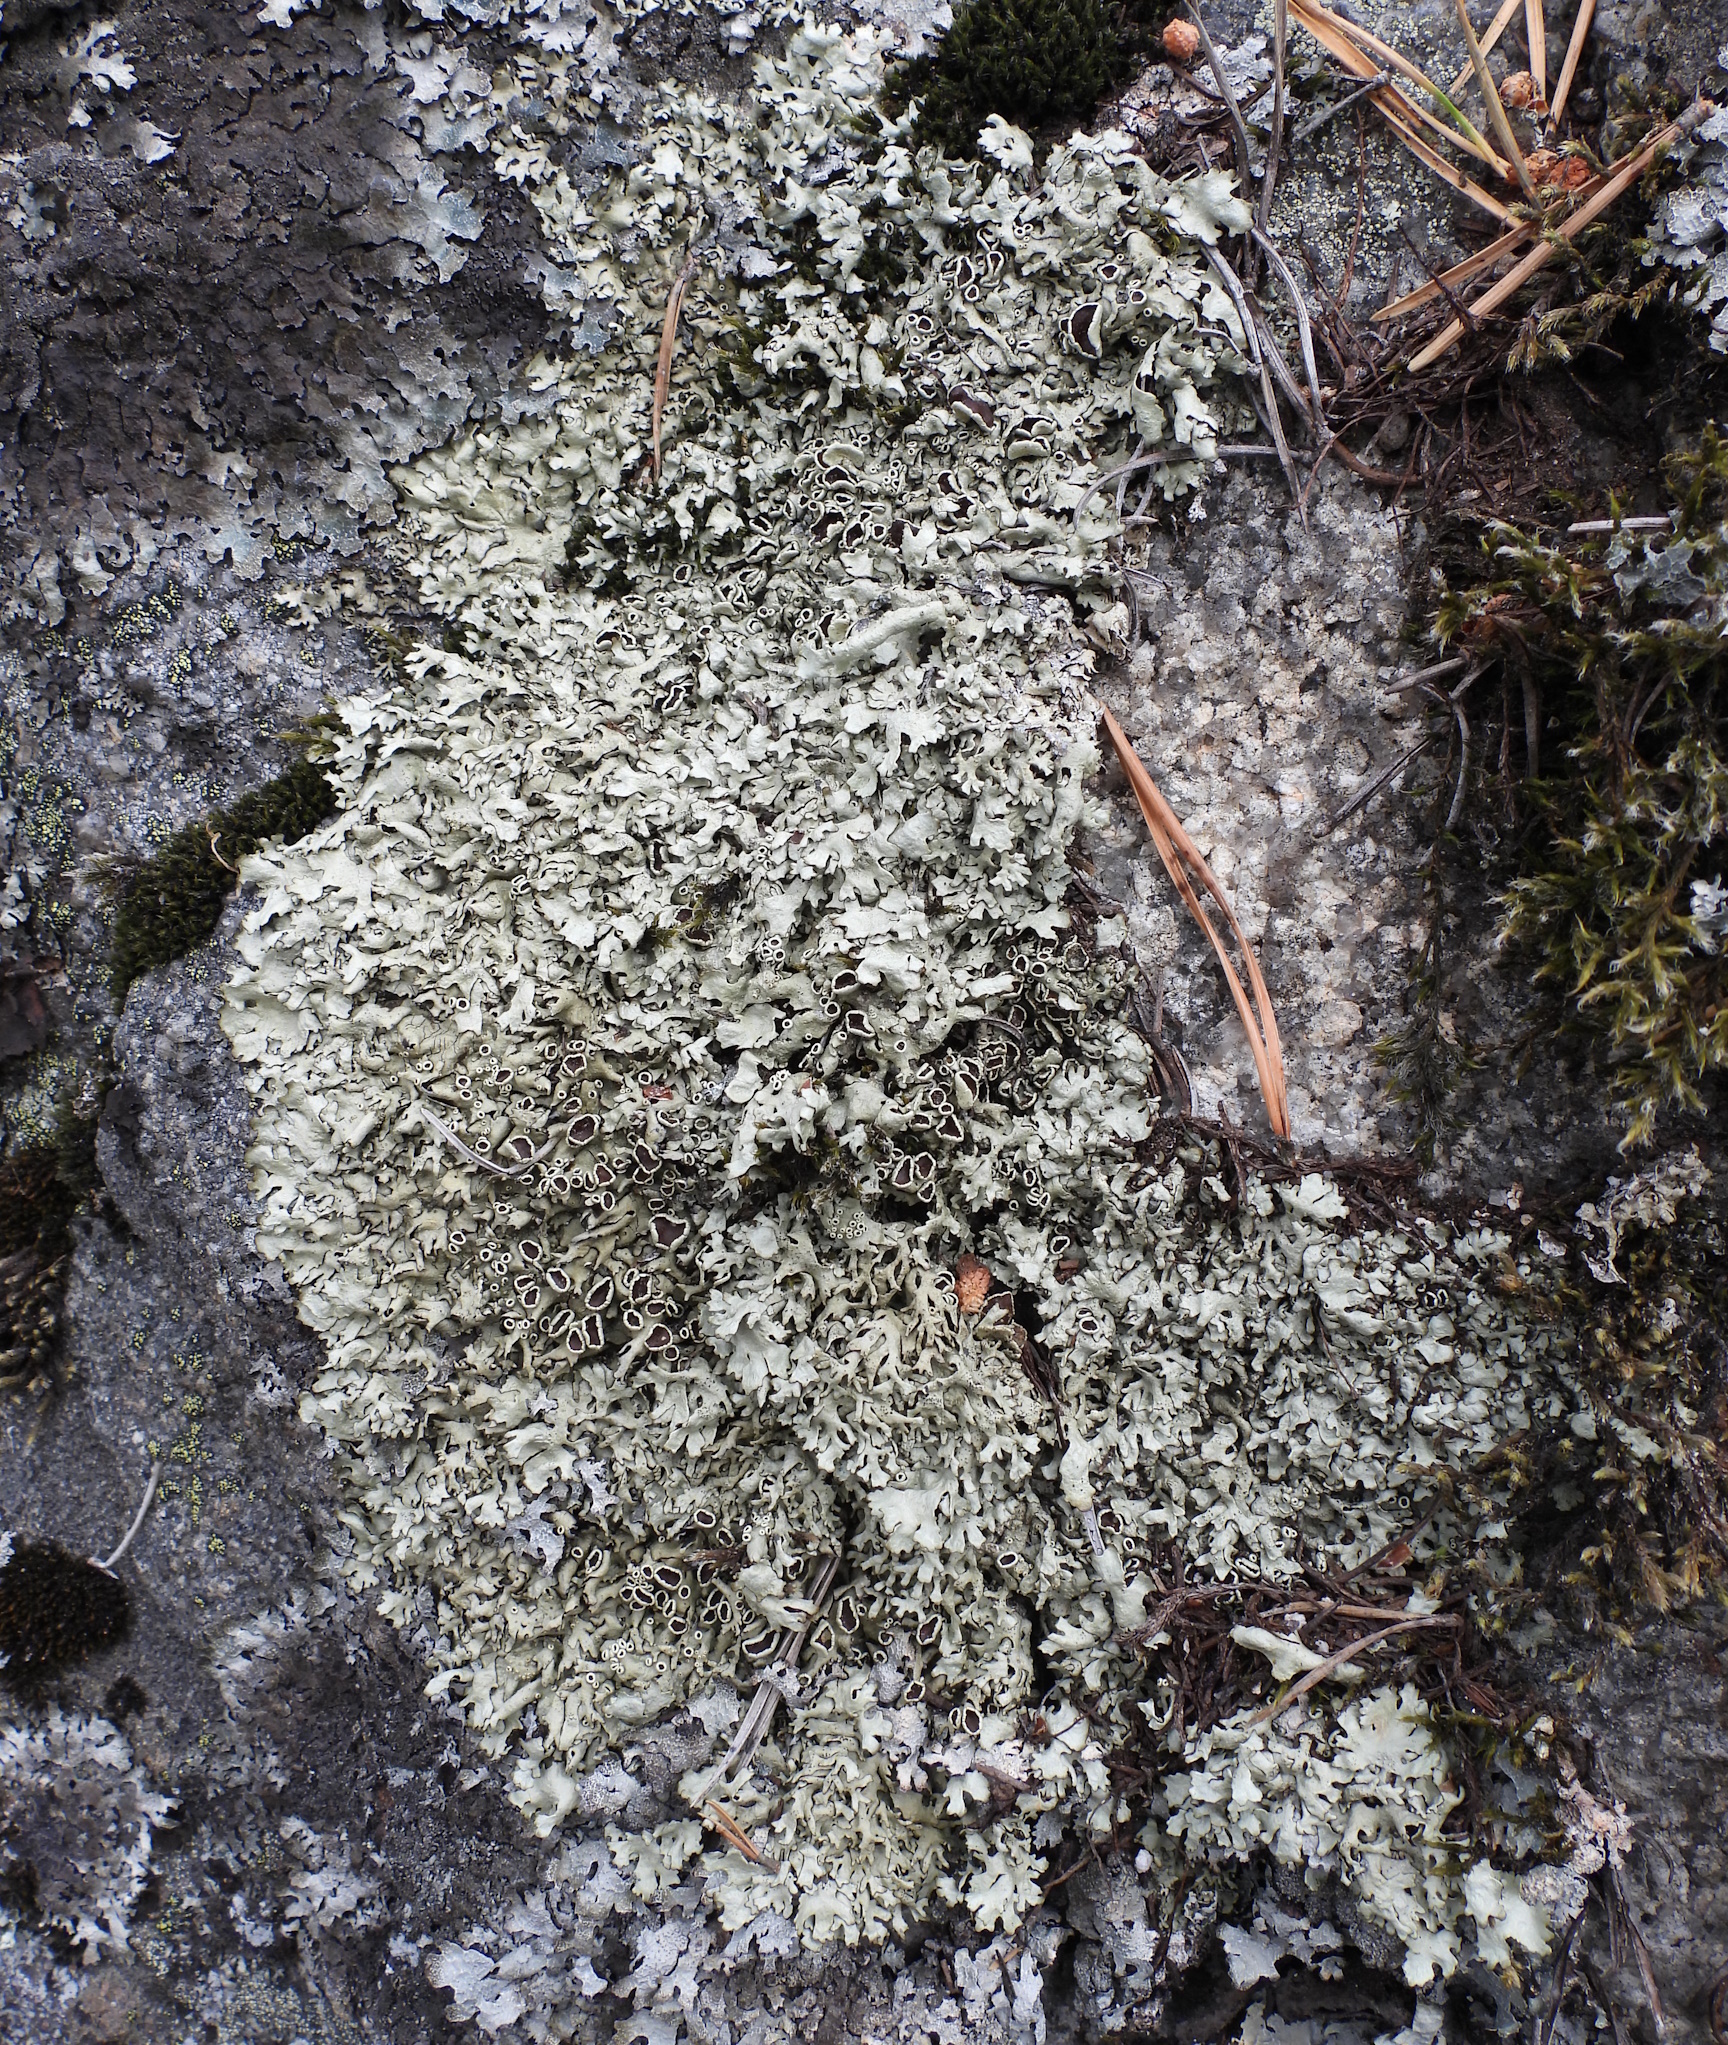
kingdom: Fungi
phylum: Ascomycota
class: Lecanoromycetes
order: Lecanorales
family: Parmeliaceae
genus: Xanthoparmelia
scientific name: Xanthoparmelia stenophylla
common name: Shingled rock shield
